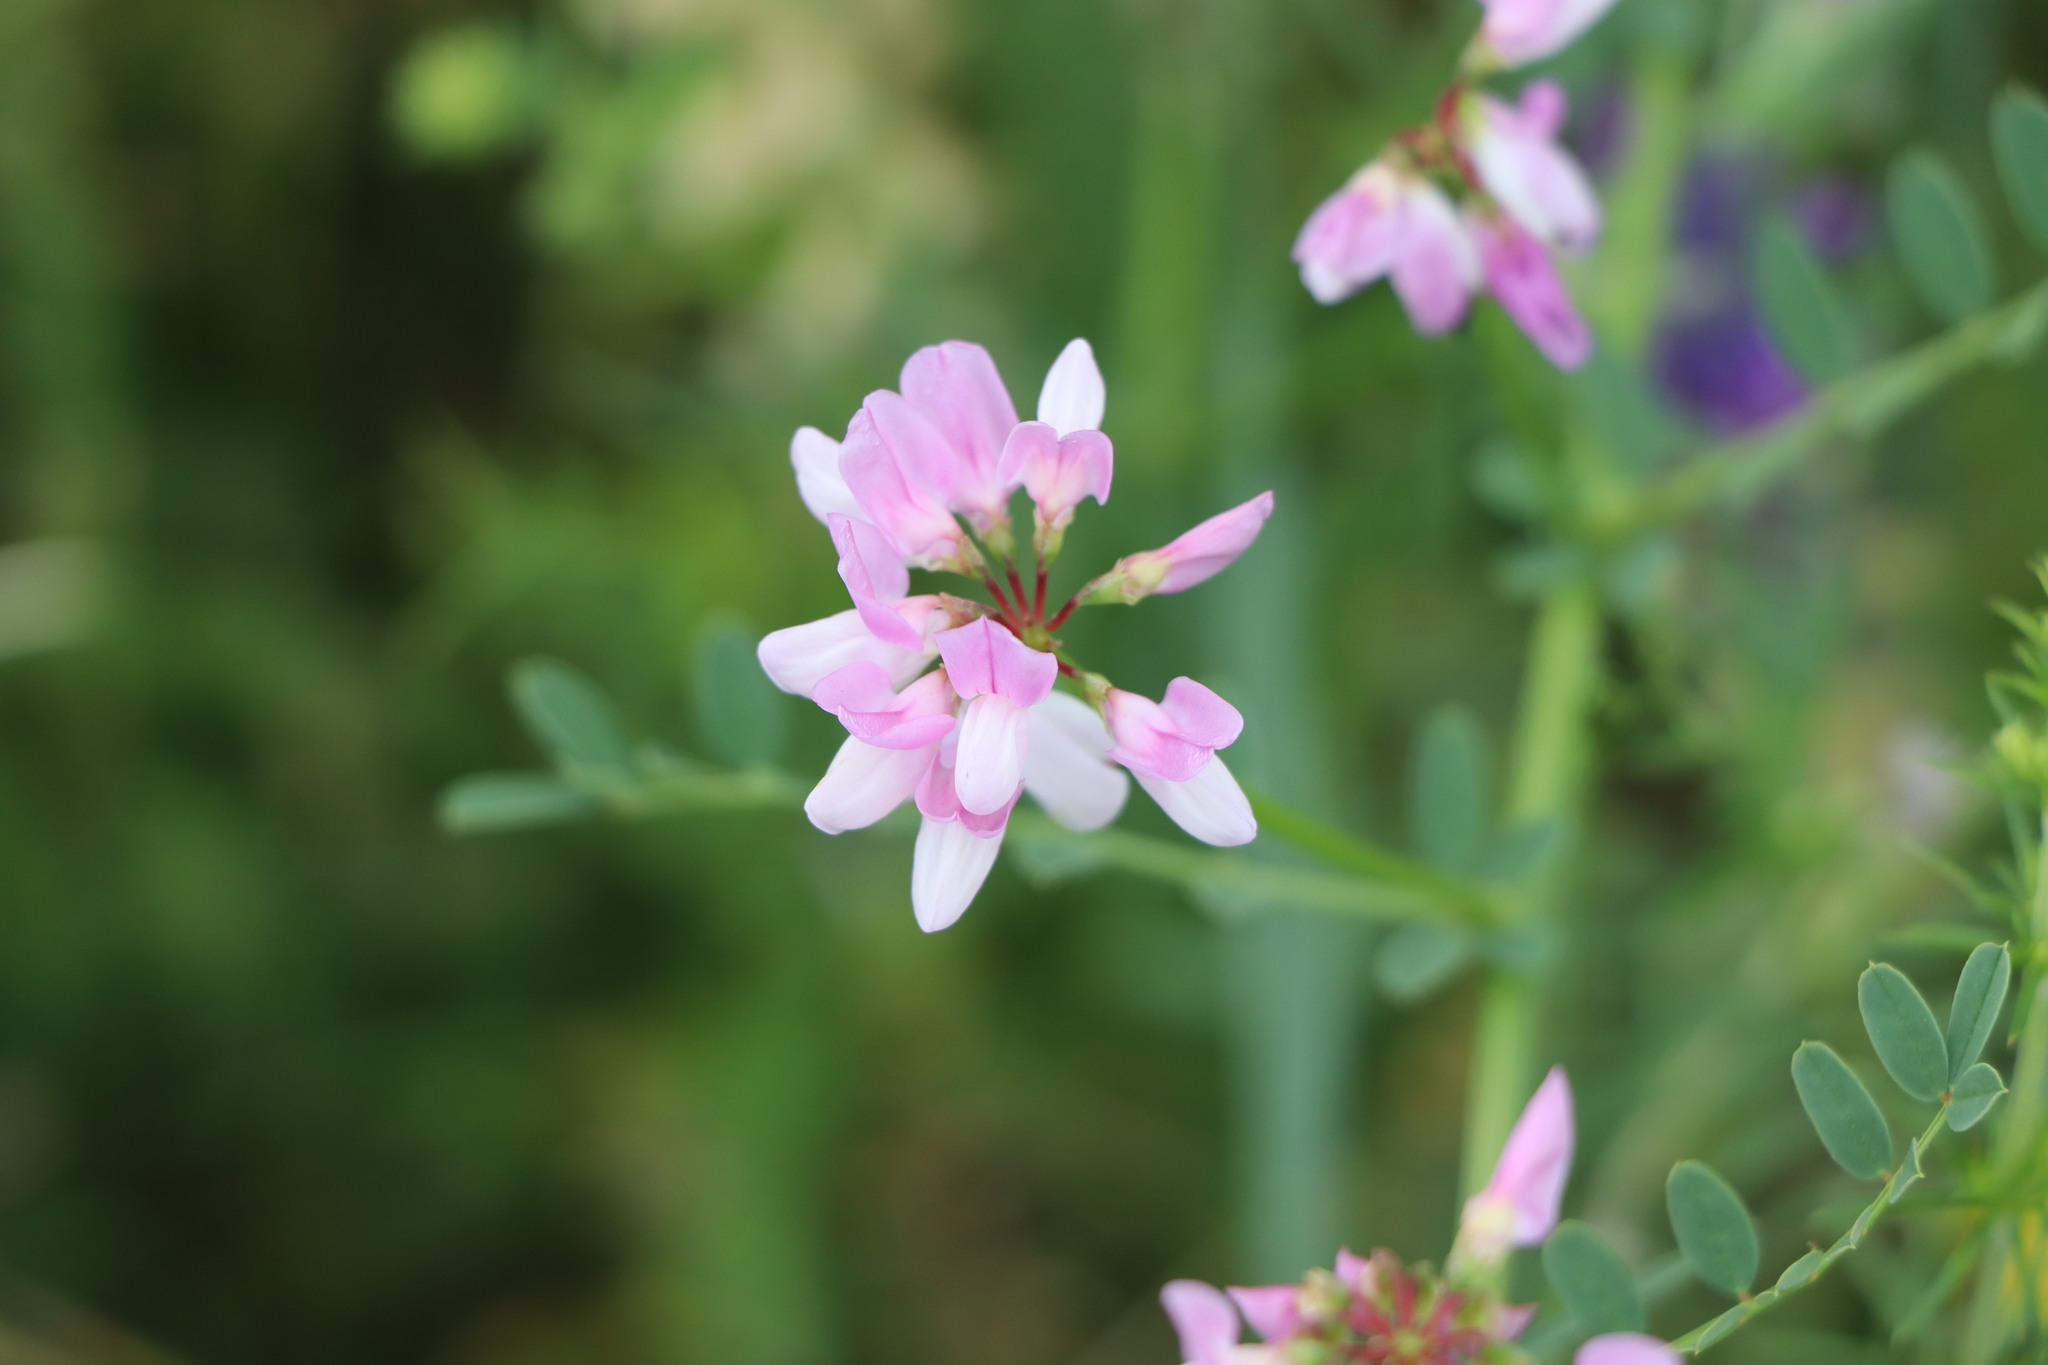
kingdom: Plantae
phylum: Tracheophyta
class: Magnoliopsida
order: Fabales
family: Fabaceae
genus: Coronilla
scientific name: Coronilla varia
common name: Crownvetch
